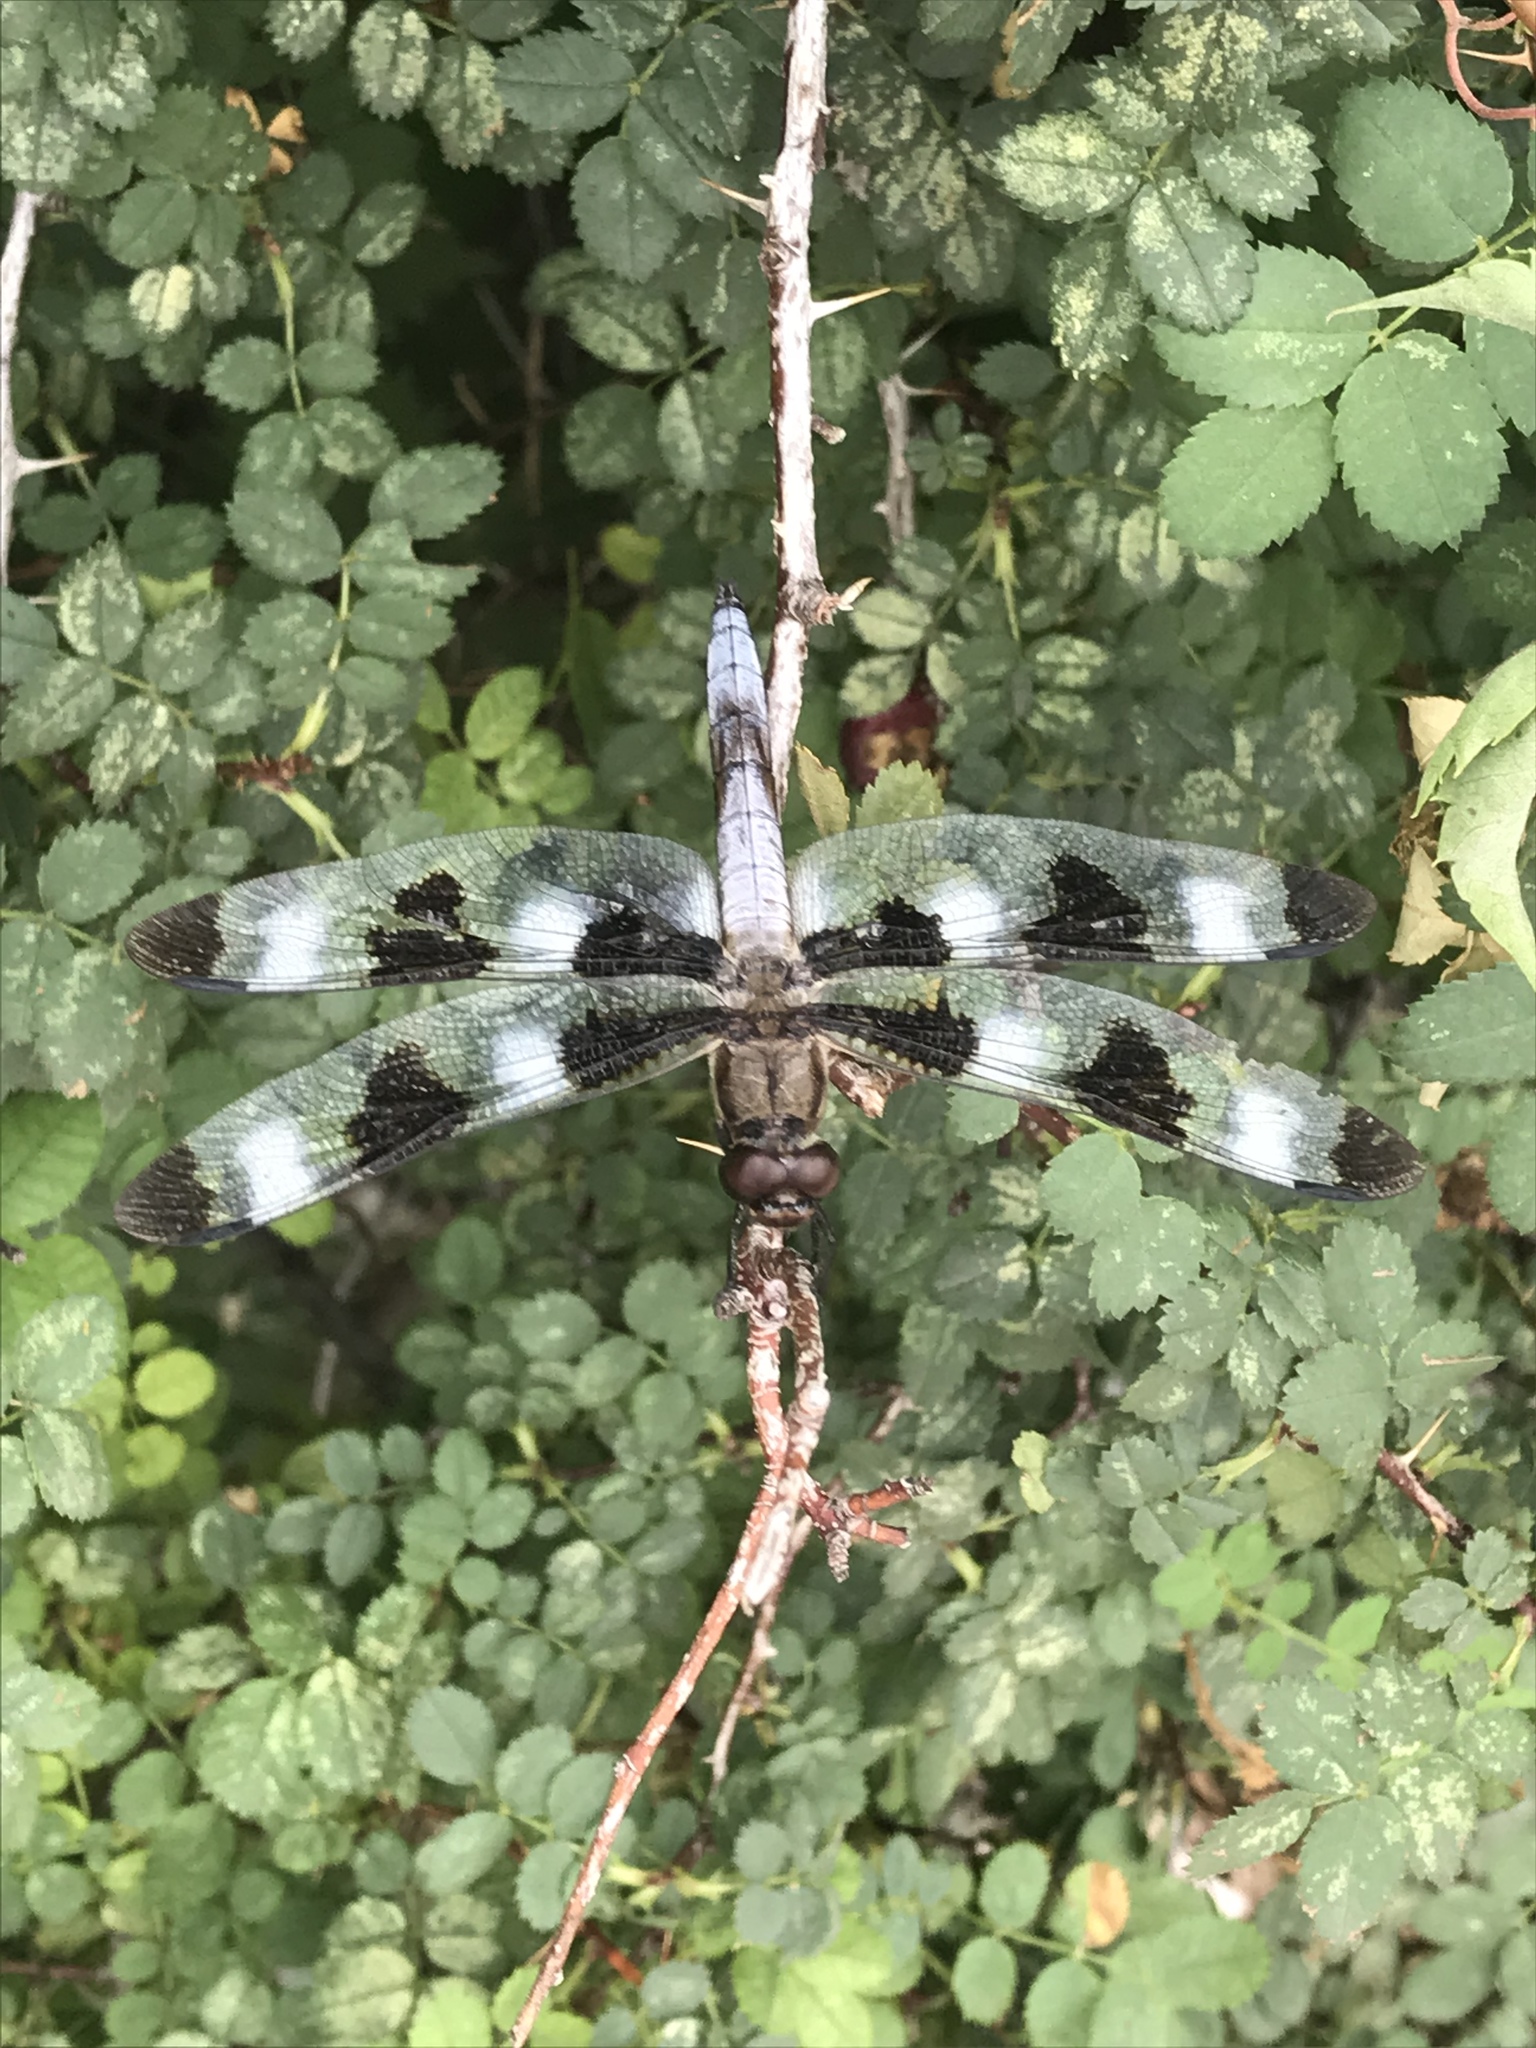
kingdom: Animalia
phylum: Arthropoda
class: Insecta
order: Odonata
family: Libellulidae
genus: Libellula
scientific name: Libellula pulchella
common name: Twelve-spotted skimmer
